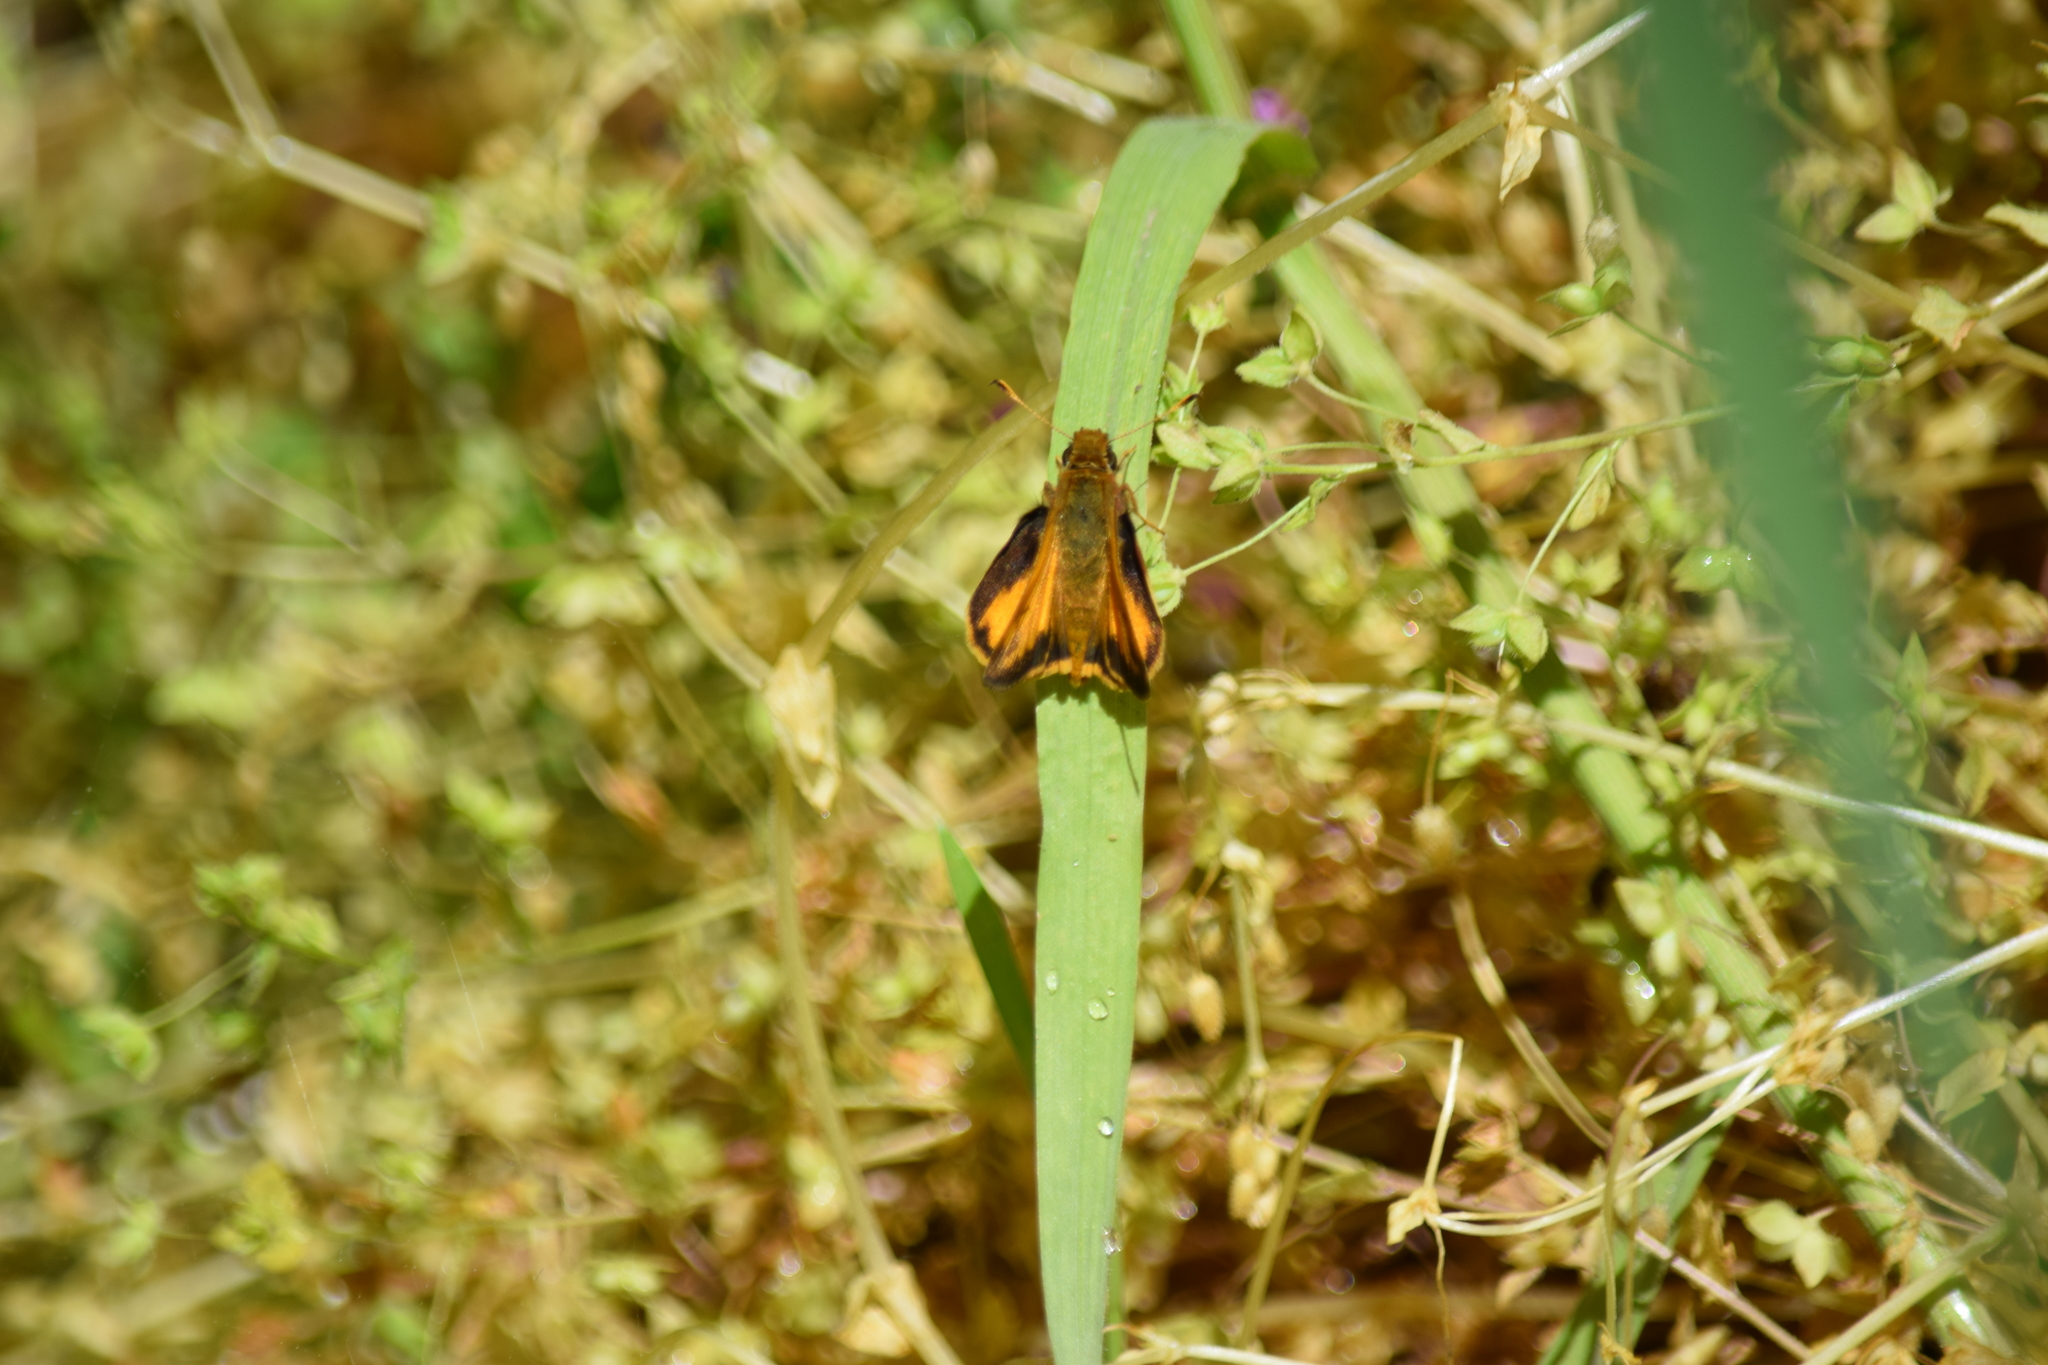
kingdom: Animalia
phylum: Arthropoda
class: Insecta
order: Lepidoptera
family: Hesperiidae
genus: Lon
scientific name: Lon zabulon
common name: Zabulon skipper
